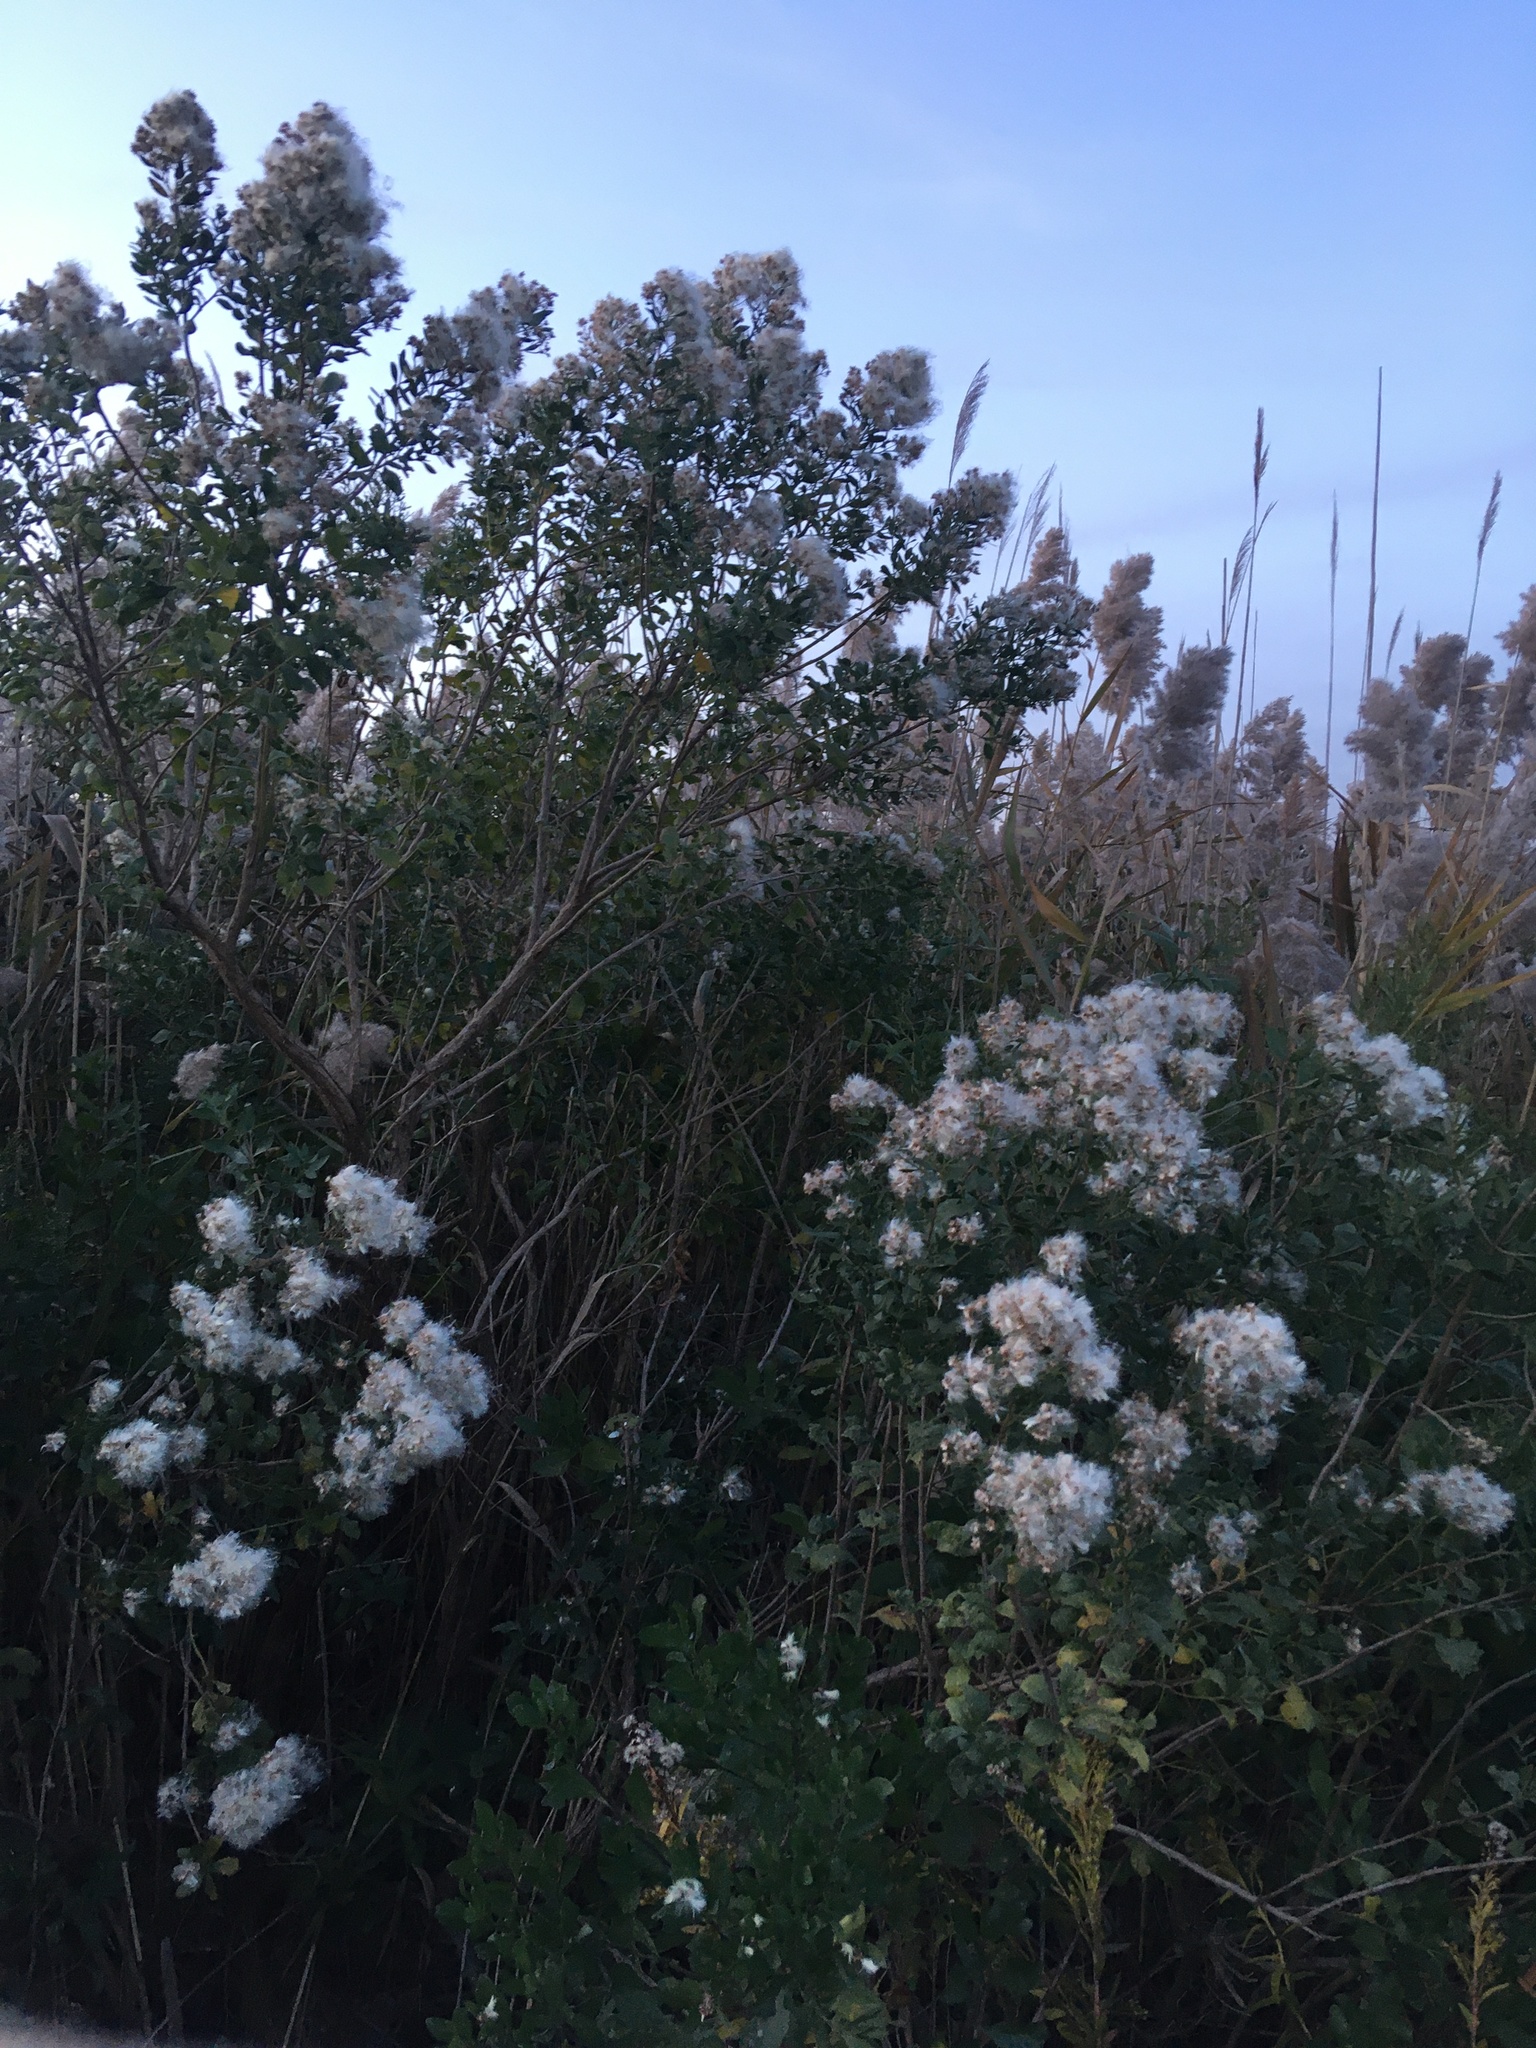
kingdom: Plantae
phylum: Tracheophyta
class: Magnoliopsida
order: Asterales
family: Asteraceae
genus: Baccharis
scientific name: Baccharis halimifolia
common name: Eastern baccharis
